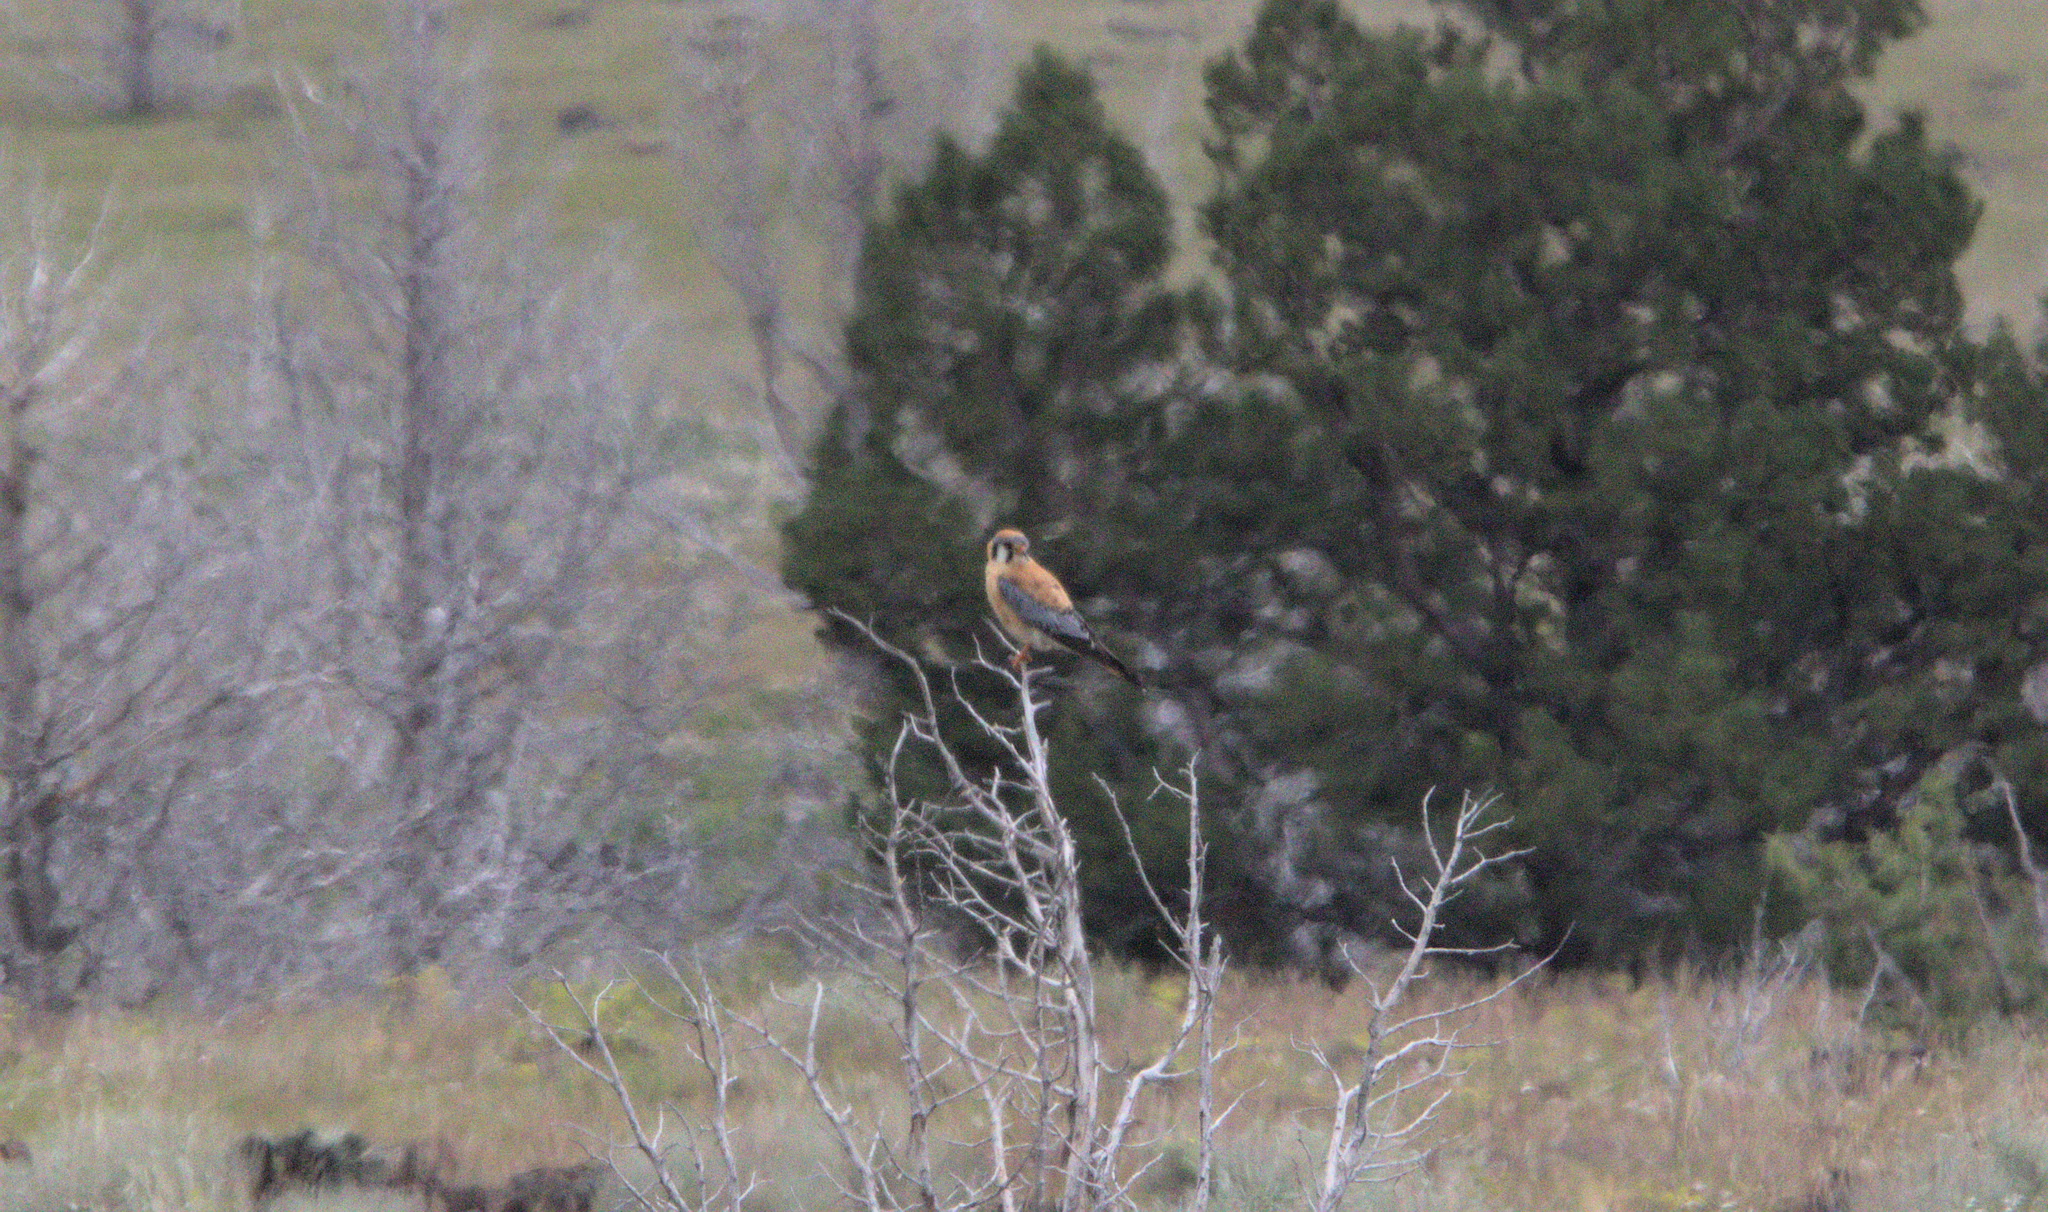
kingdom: Animalia
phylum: Chordata
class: Aves
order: Falconiformes
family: Falconidae
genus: Falco
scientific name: Falco sparverius
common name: American kestrel
